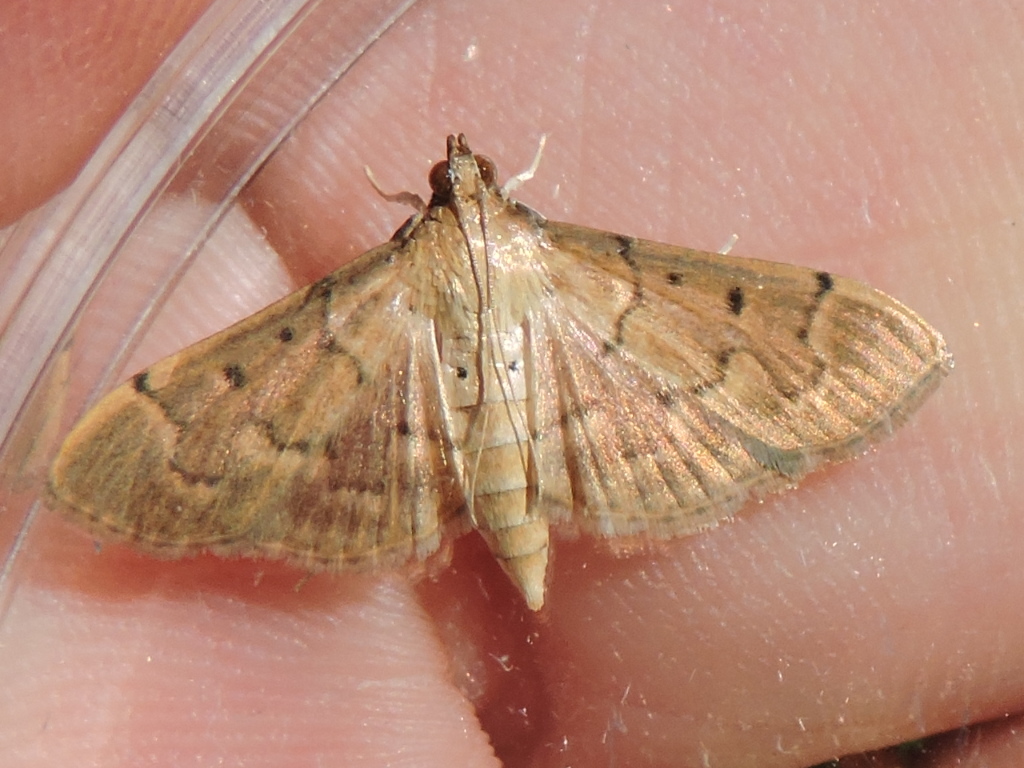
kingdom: Animalia
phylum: Arthropoda
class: Insecta
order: Lepidoptera
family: Crambidae
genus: Herpetogramma
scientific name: Herpetogramma bipunctalis
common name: Southern beet webworm
